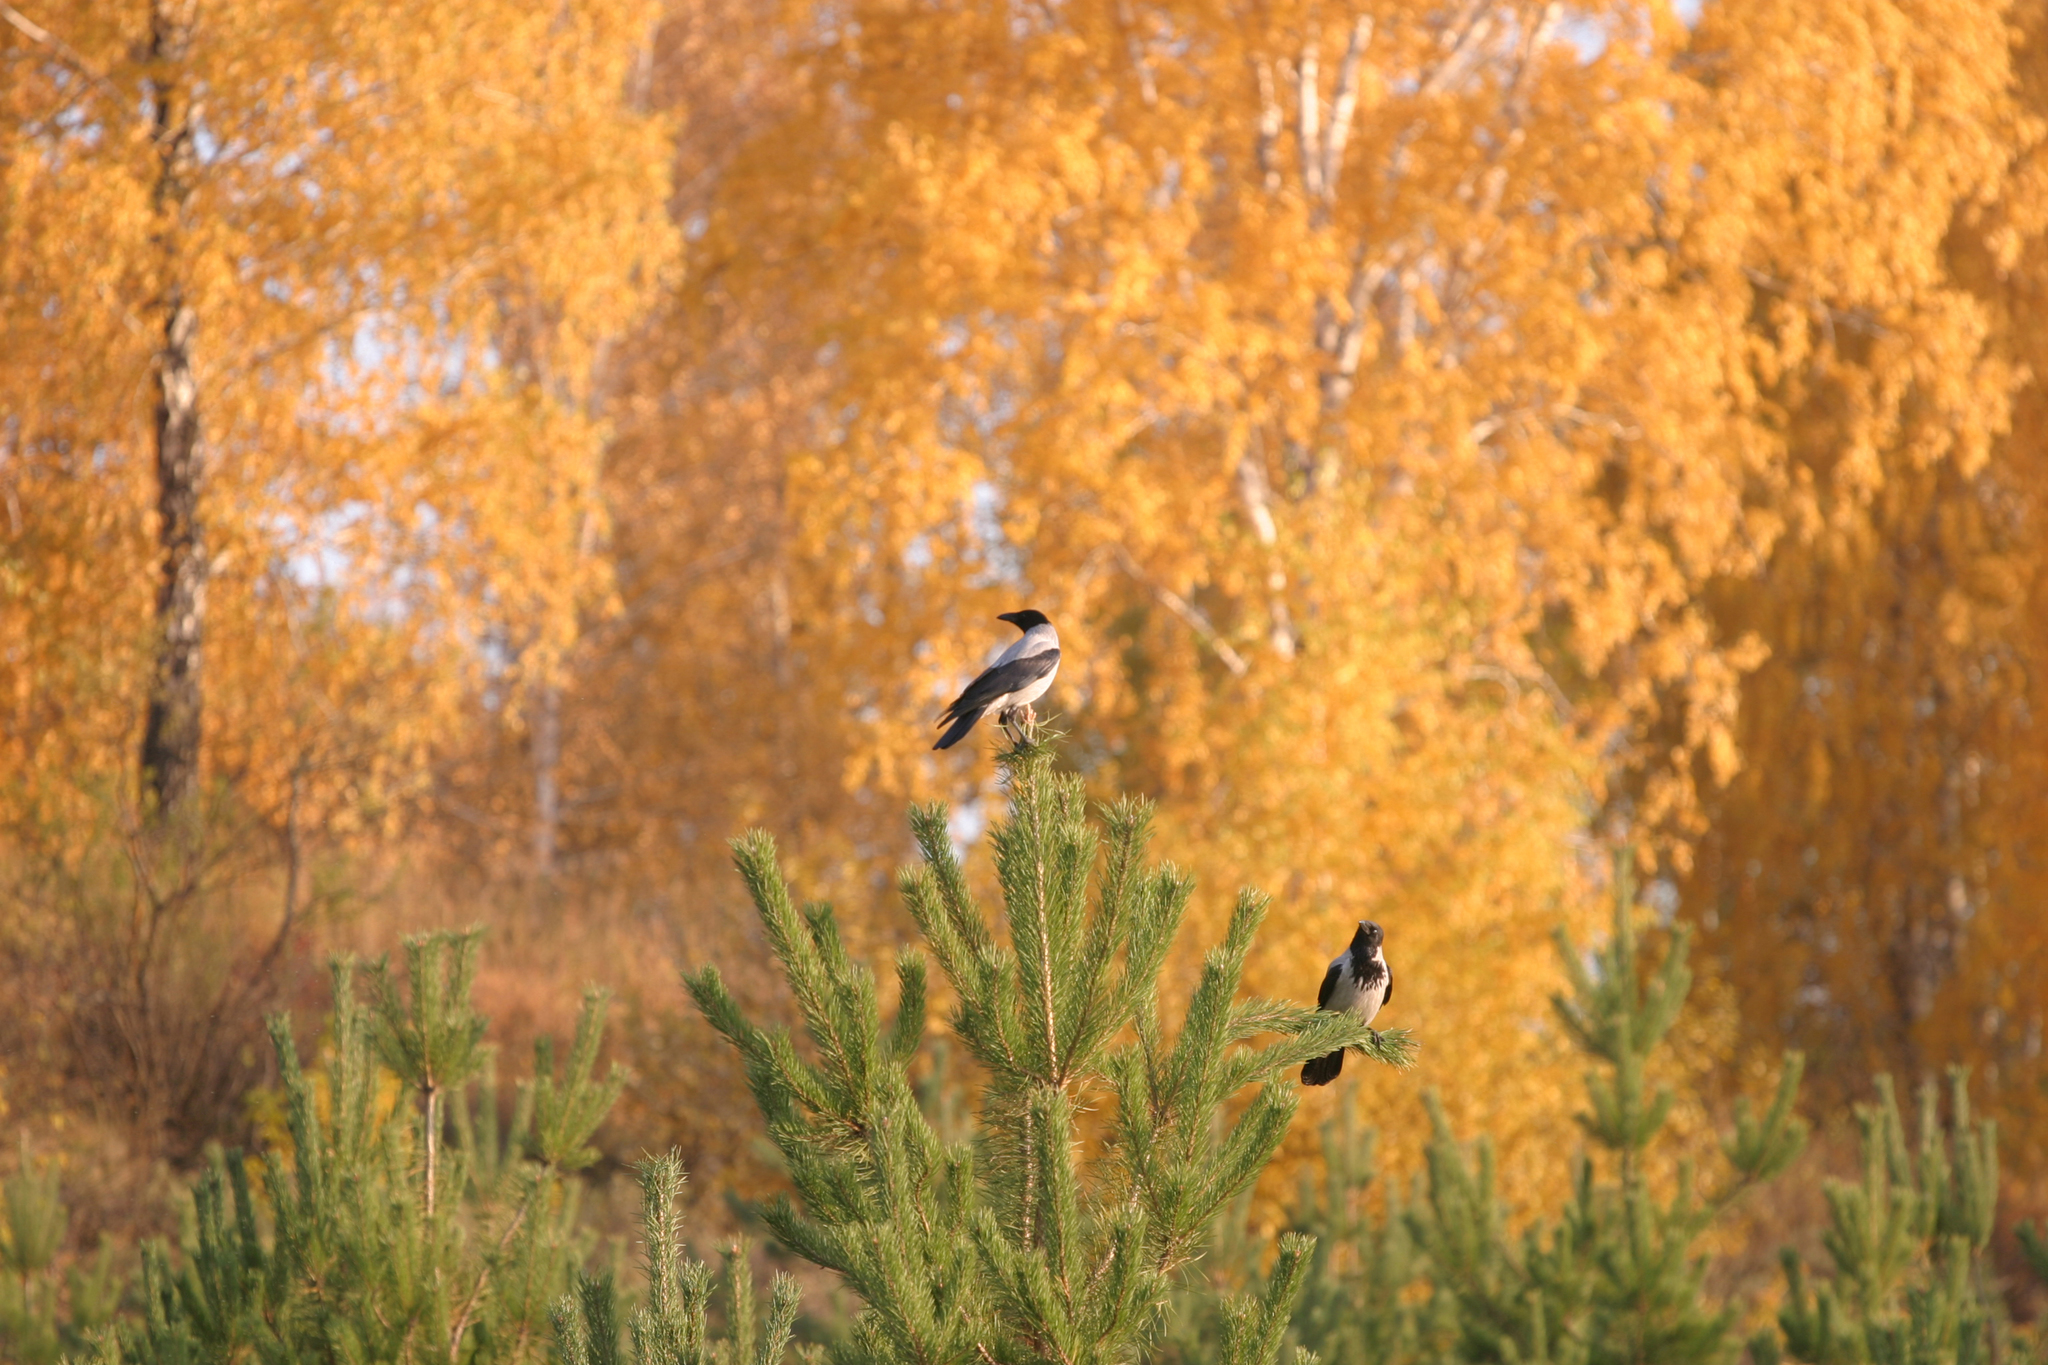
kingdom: Animalia
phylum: Chordata
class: Aves
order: Passeriformes
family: Corvidae
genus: Corvus
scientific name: Corvus cornix
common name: Hooded crow
